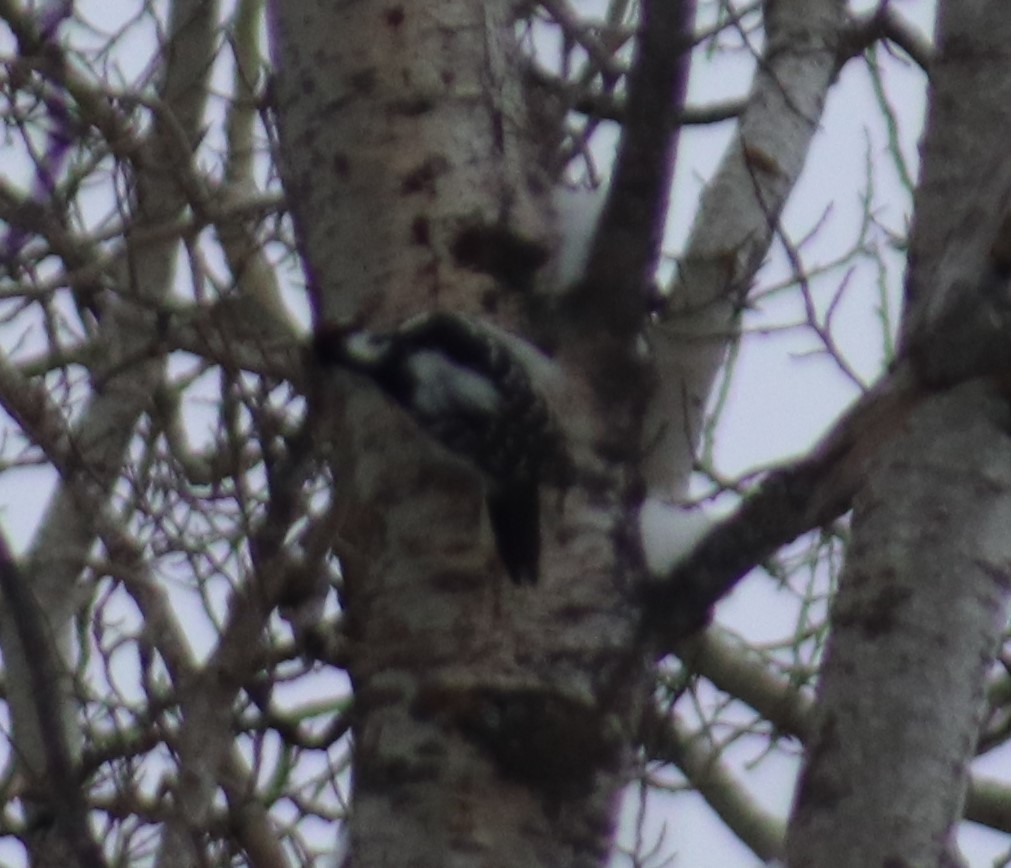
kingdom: Animalia
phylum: Chordata
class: Aves
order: Piciformes
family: Picidae
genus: Leuconotopicus
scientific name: Leuconotopicus villosus
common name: Hairy woodpecker
